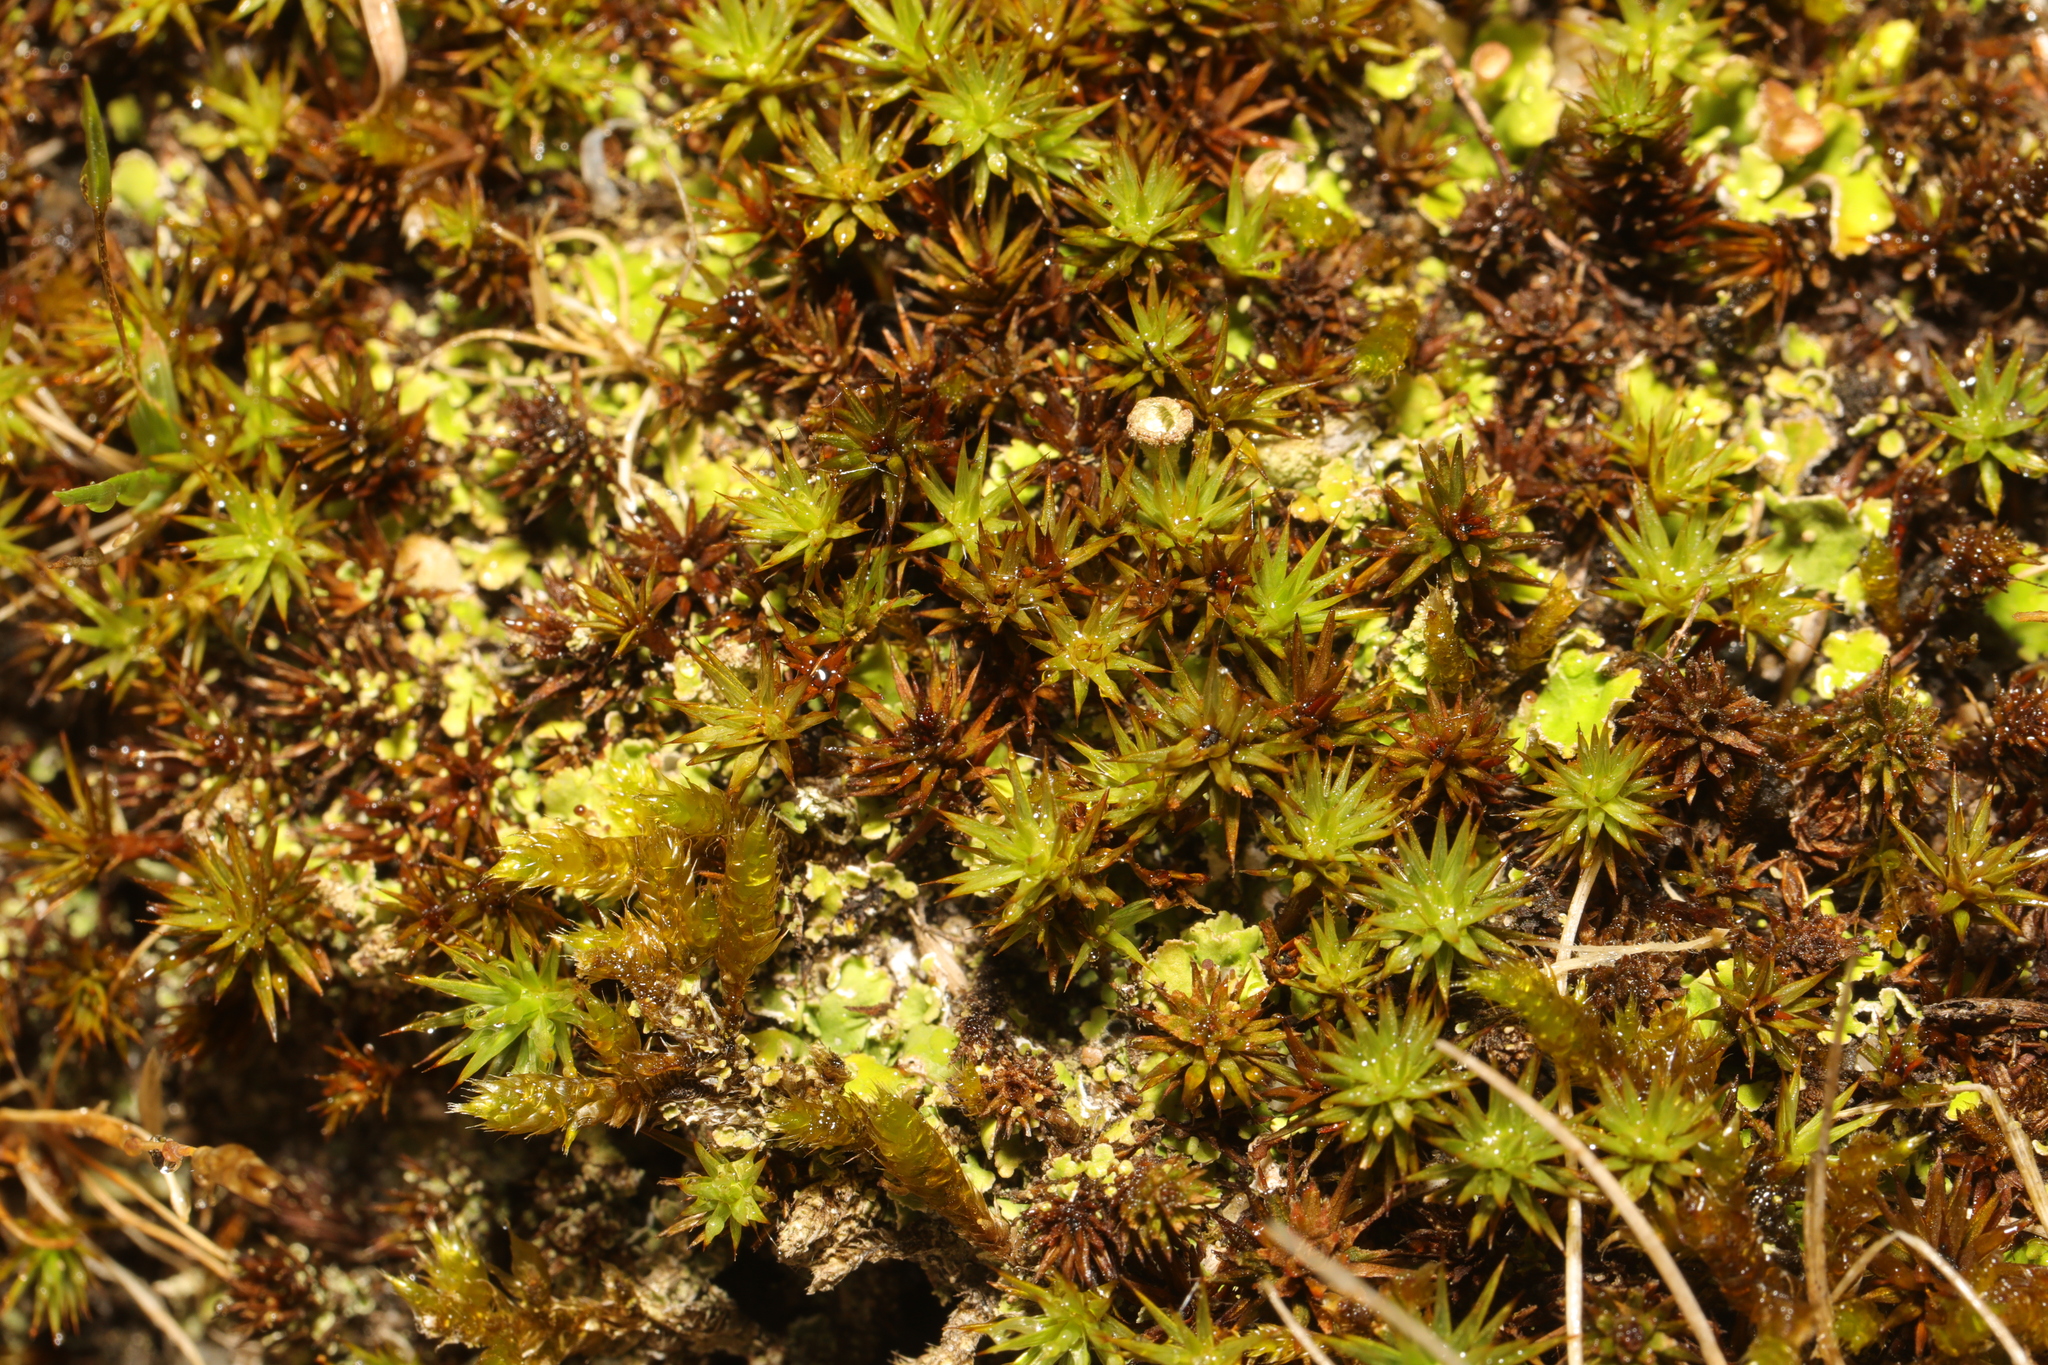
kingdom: Plantae
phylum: Bryophyta
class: Polytrichopsida
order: Polytrichales
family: Polytrichaceae
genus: Polytrichum
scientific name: Polytrichum juniperinum
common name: Juniper haircap moss
